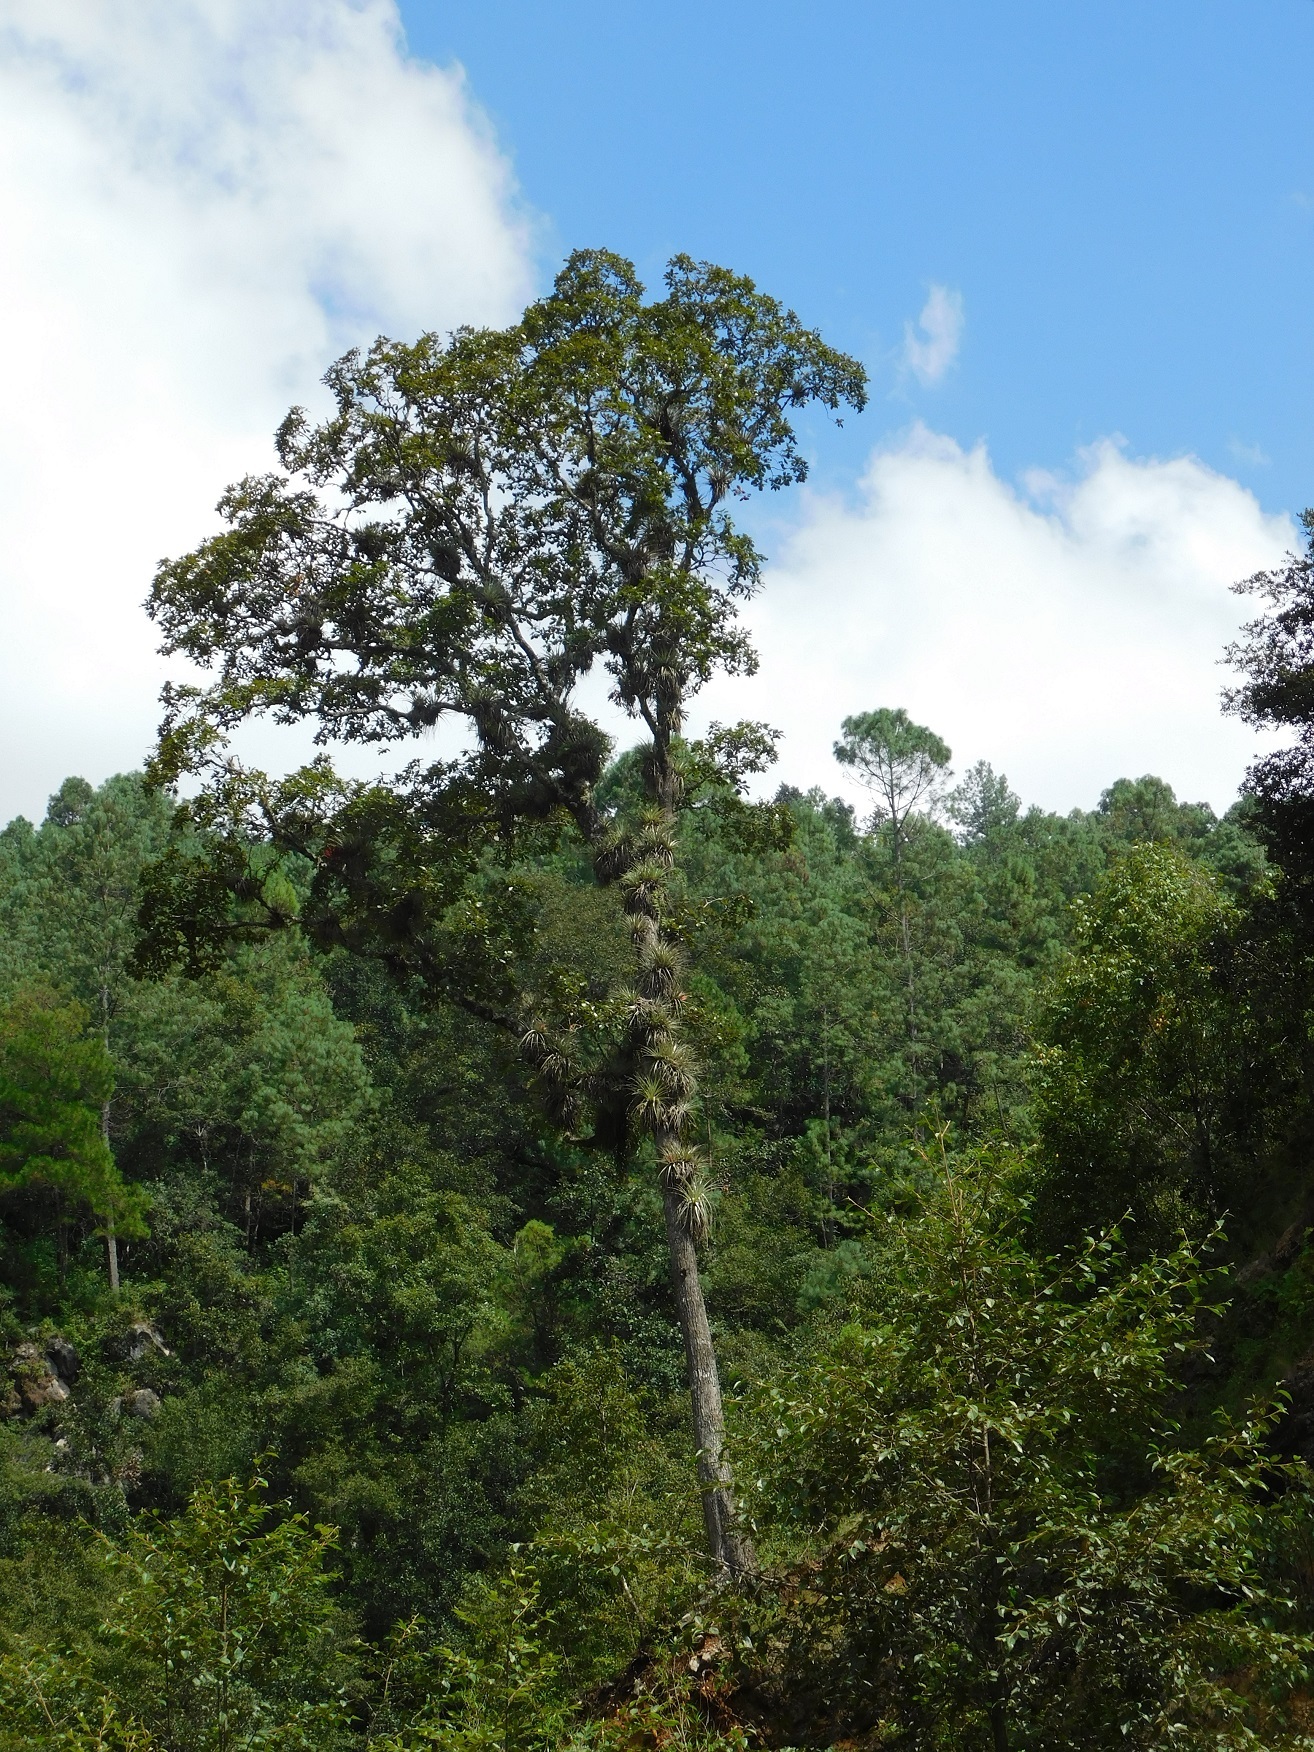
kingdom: Plantae
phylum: Tracheophyta
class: Magnoliopsida
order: Fagales
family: Fagaceae
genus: Quercus
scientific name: Quercus segoviensis
